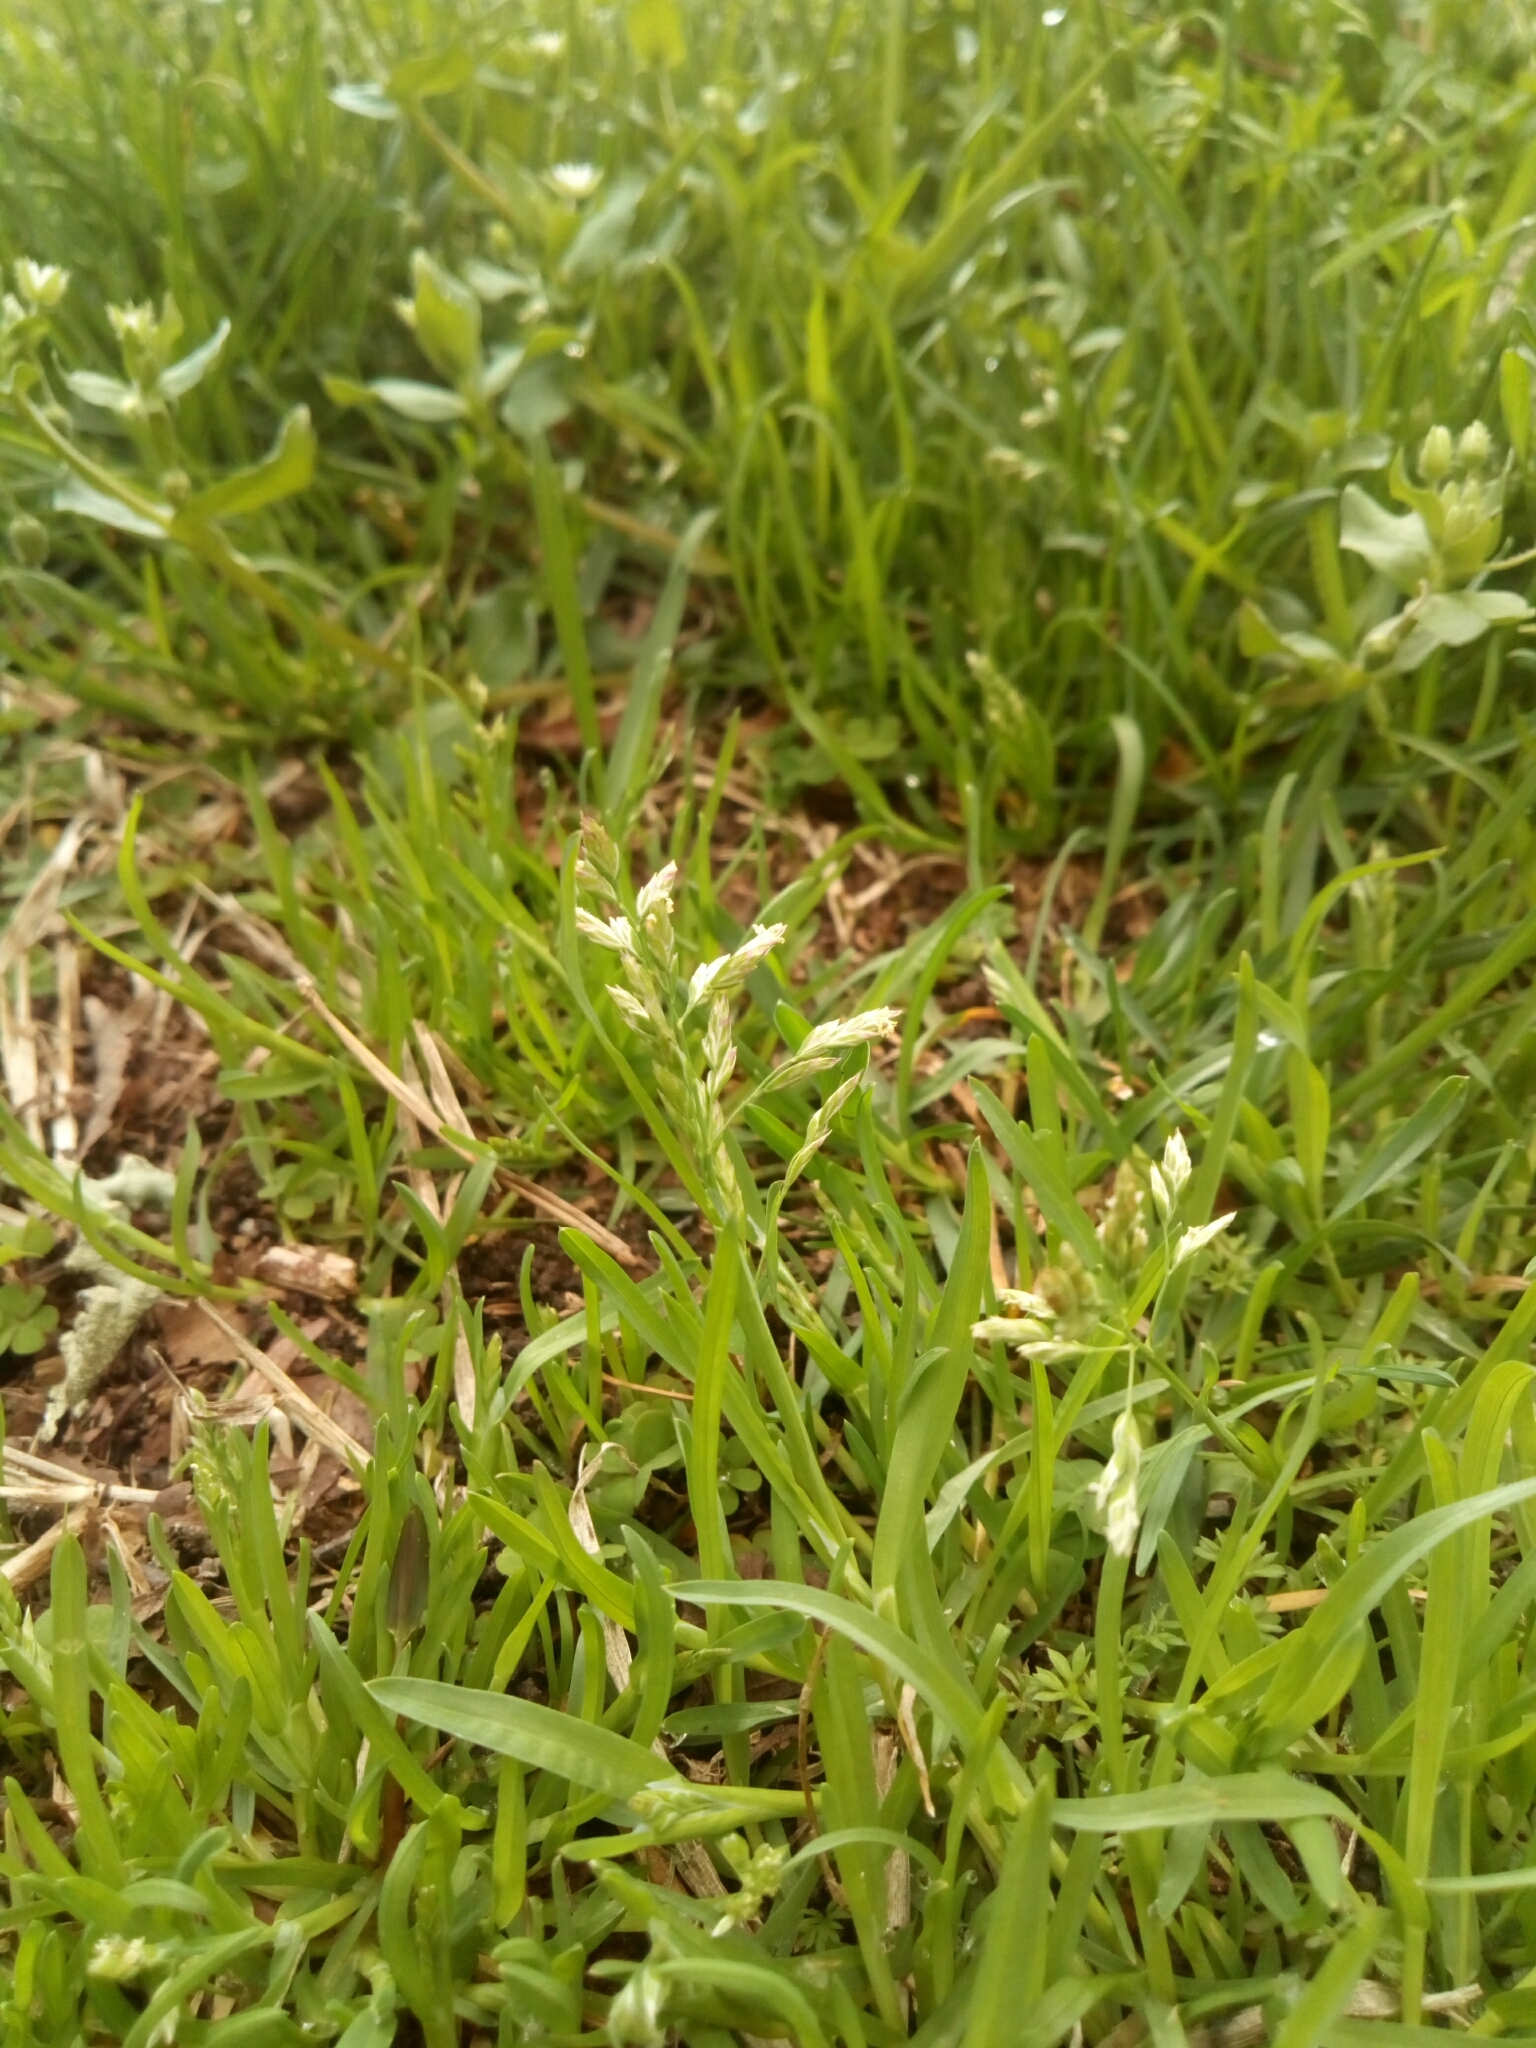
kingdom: Plantae
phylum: Tracheophyta
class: Liliopsida
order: Poales
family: Poaceae
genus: Poa
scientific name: Poa annua
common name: Annual bluegrass
